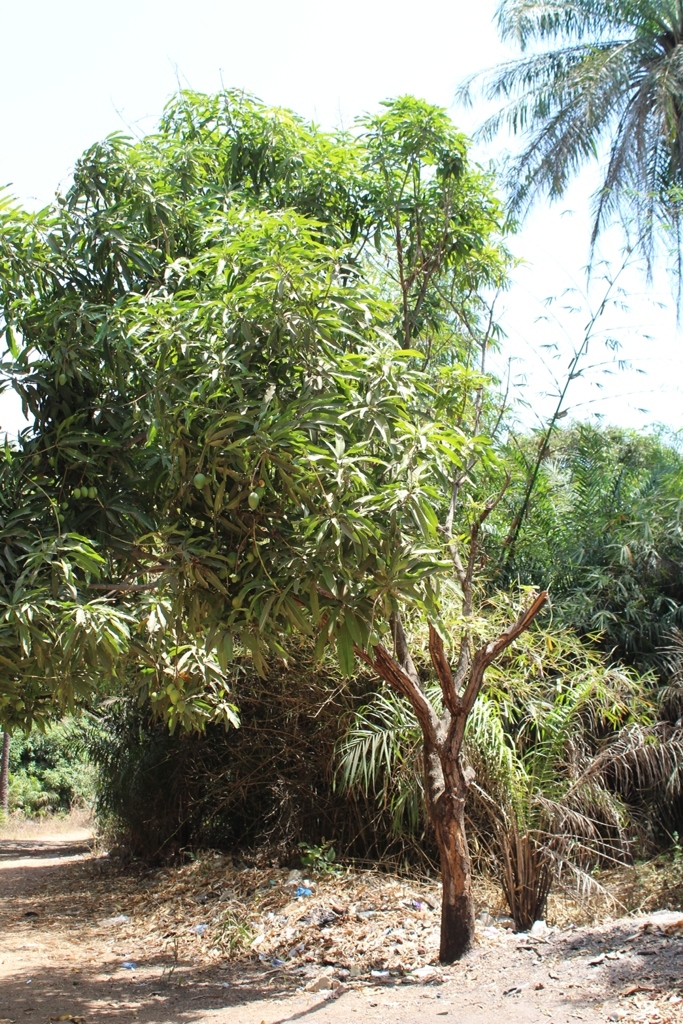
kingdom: Plantae
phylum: Tracheophyta
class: Magnoliopsida
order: Sapindales
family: Anacardiaceae
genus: Mangifera
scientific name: Mangifera indica
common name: Mango
